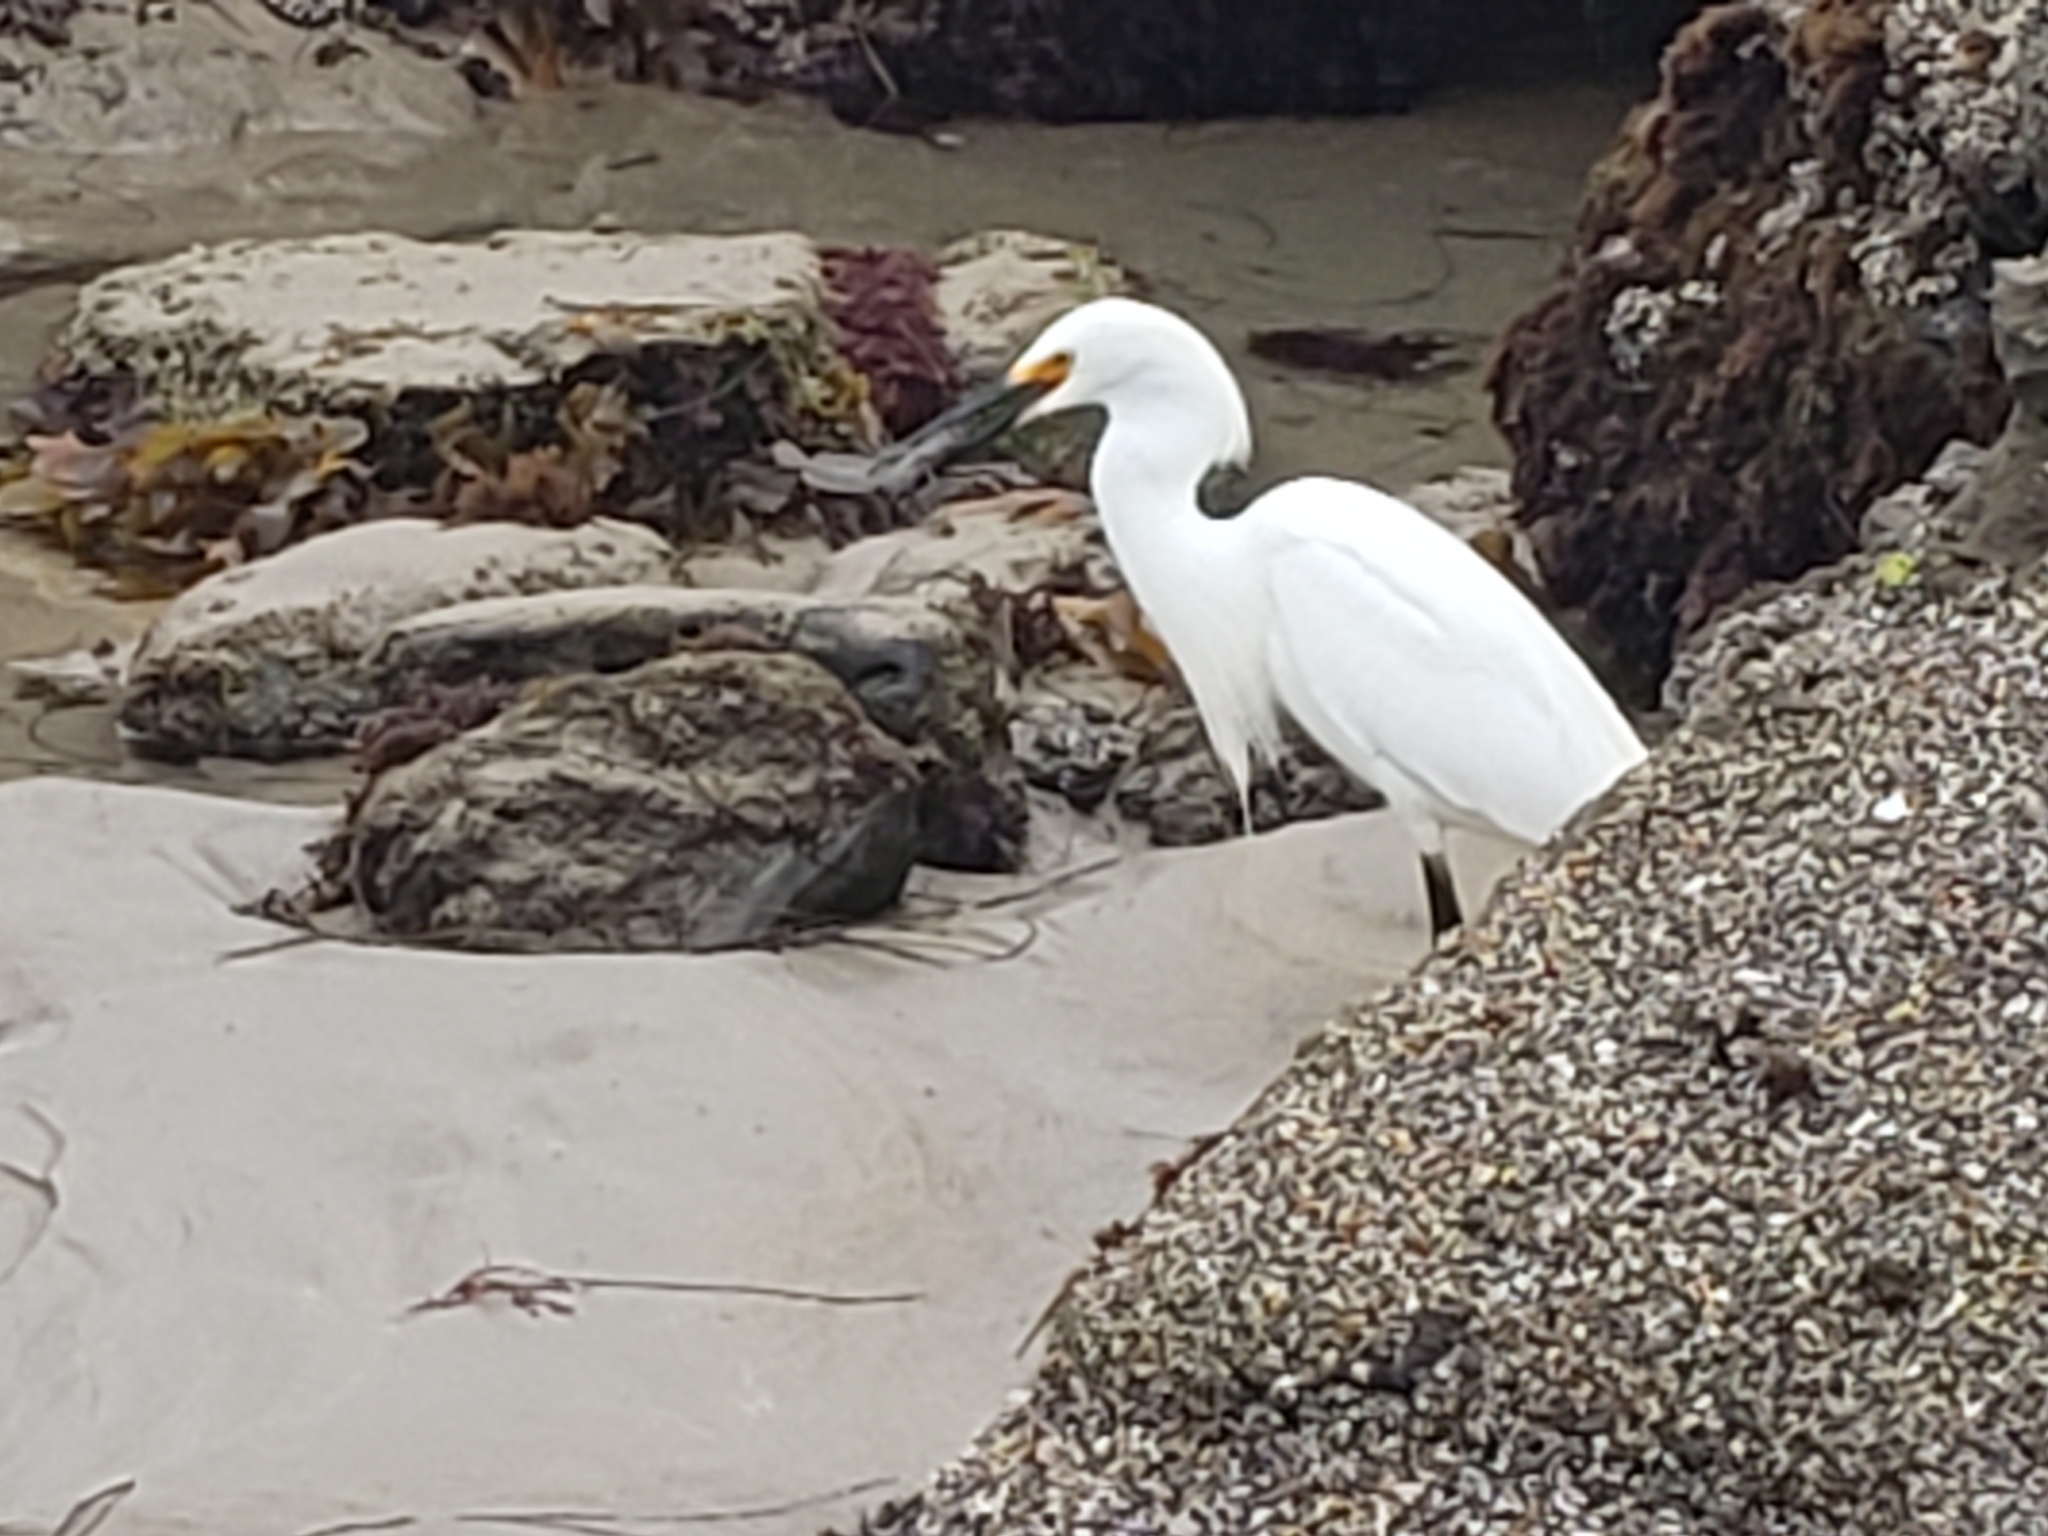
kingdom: Animalia
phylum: Chordata
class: Aves
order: Pelecaniformes
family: Ardeidae
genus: Egretta
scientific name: Egretta thula
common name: Snowy egret
